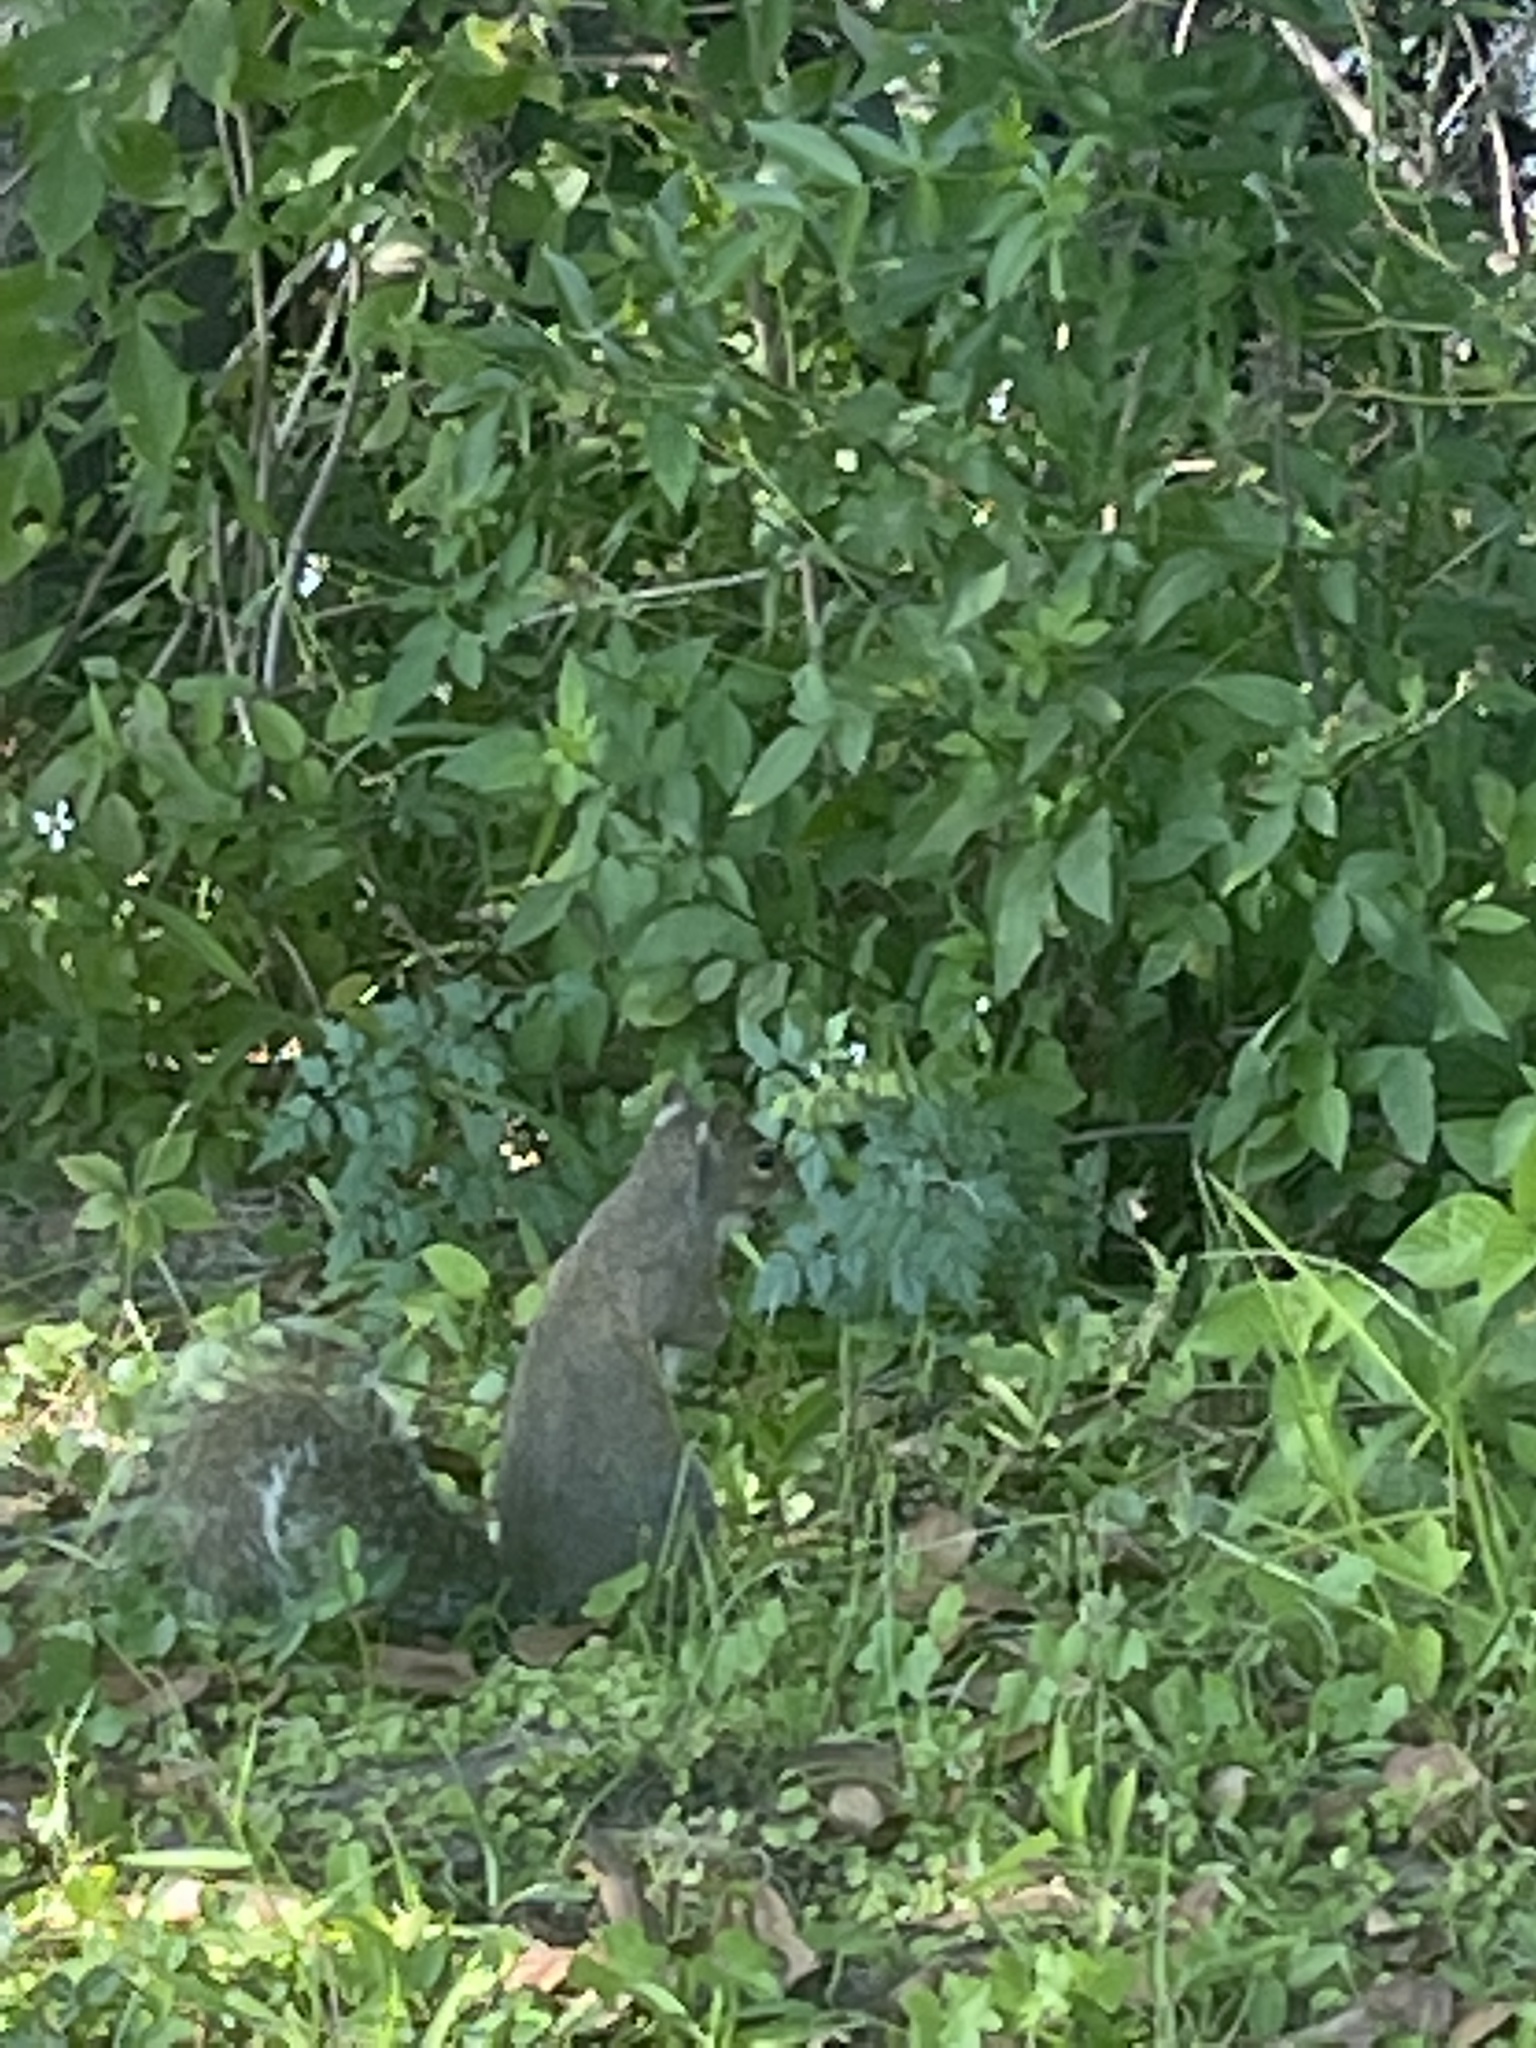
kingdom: Animalia
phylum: Chordata
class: Mammalia
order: Rodentia
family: Sciuridae
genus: Sciurus
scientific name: Sciurus carolinensis
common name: Eastern gray squirrel
